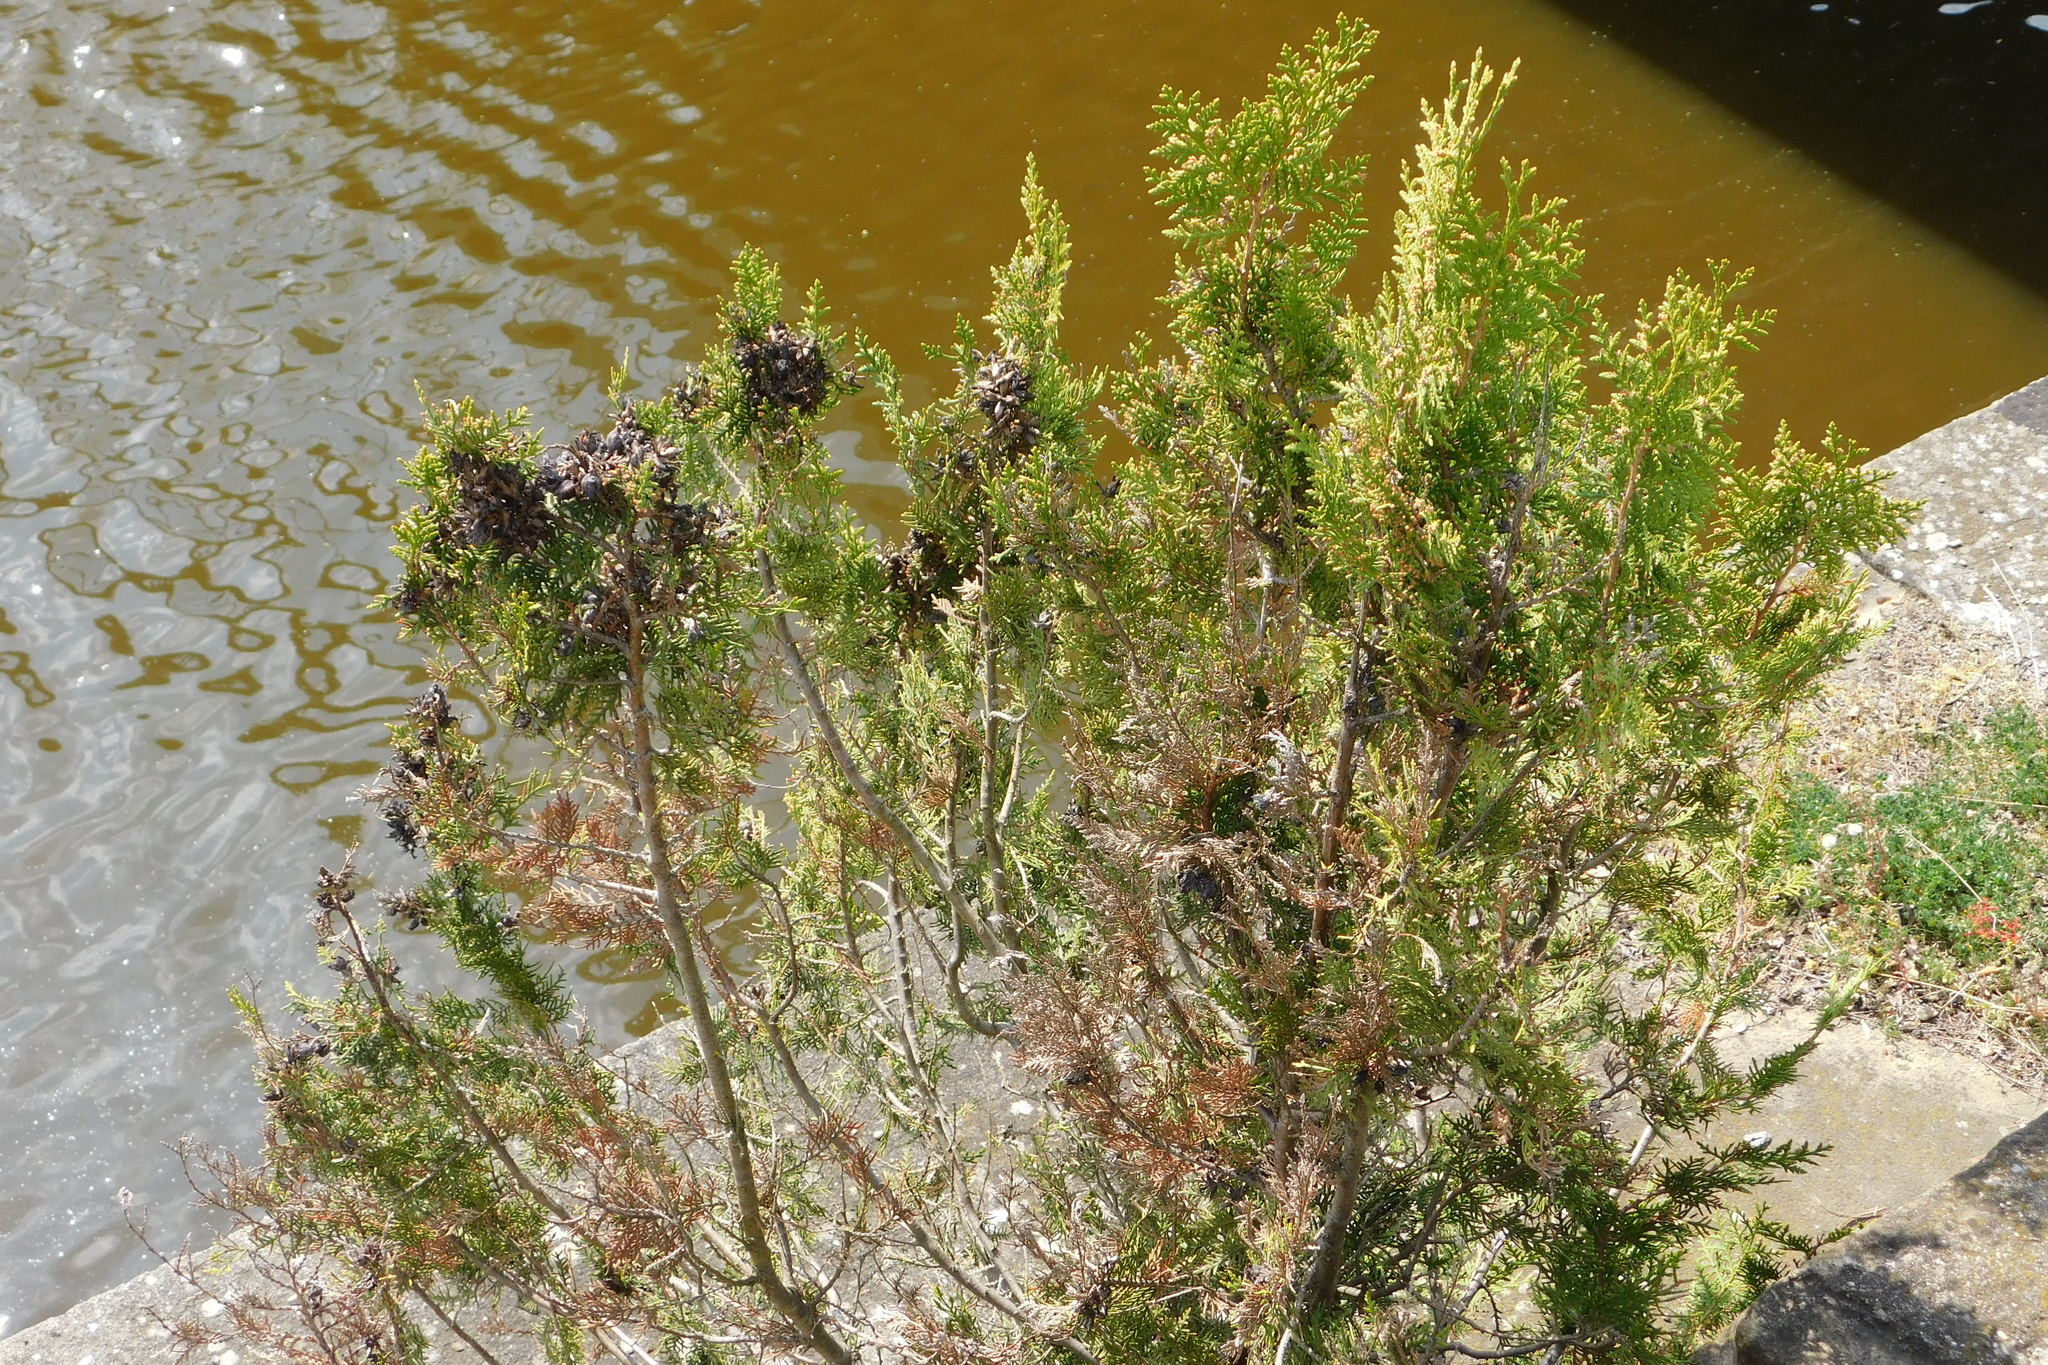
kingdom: Plantae
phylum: Tracheophyta
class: Pinopsida
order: Pinales
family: Cupressaceae
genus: Platycladus
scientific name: Platycladus orientalis
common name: Chinese thuja
